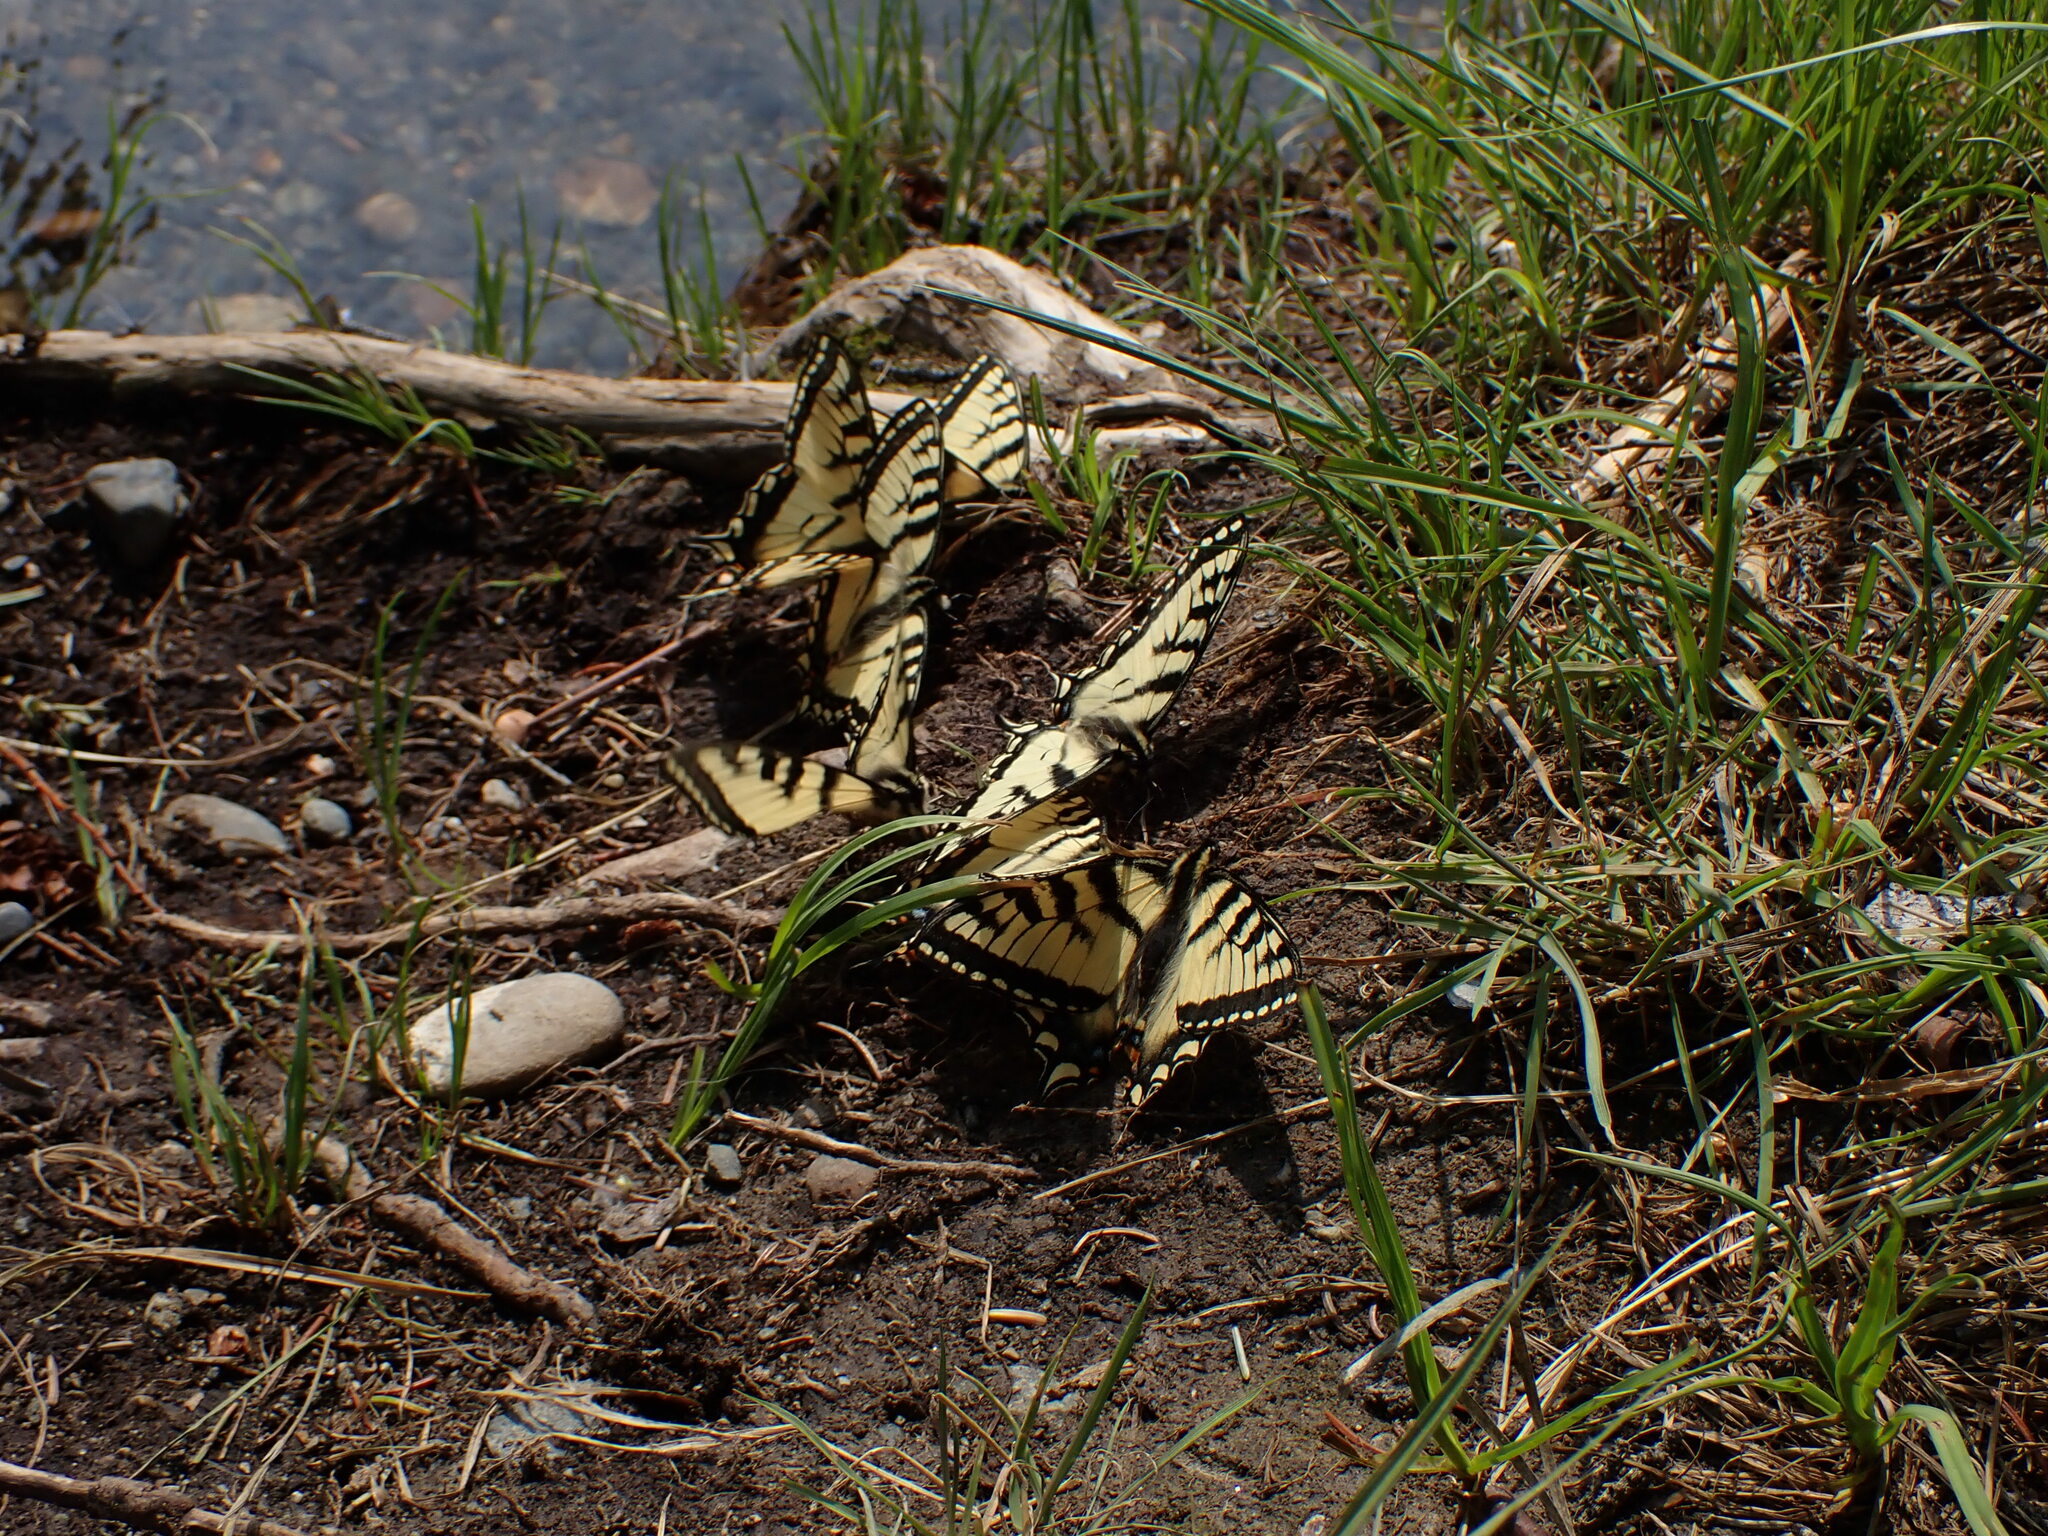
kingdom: Animalia
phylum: Arthropoda
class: Insecta
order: Lepidoptera
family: Papilionidae
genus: Papilio
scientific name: Papilio canadensis
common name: Canadian tiger swallowtail
